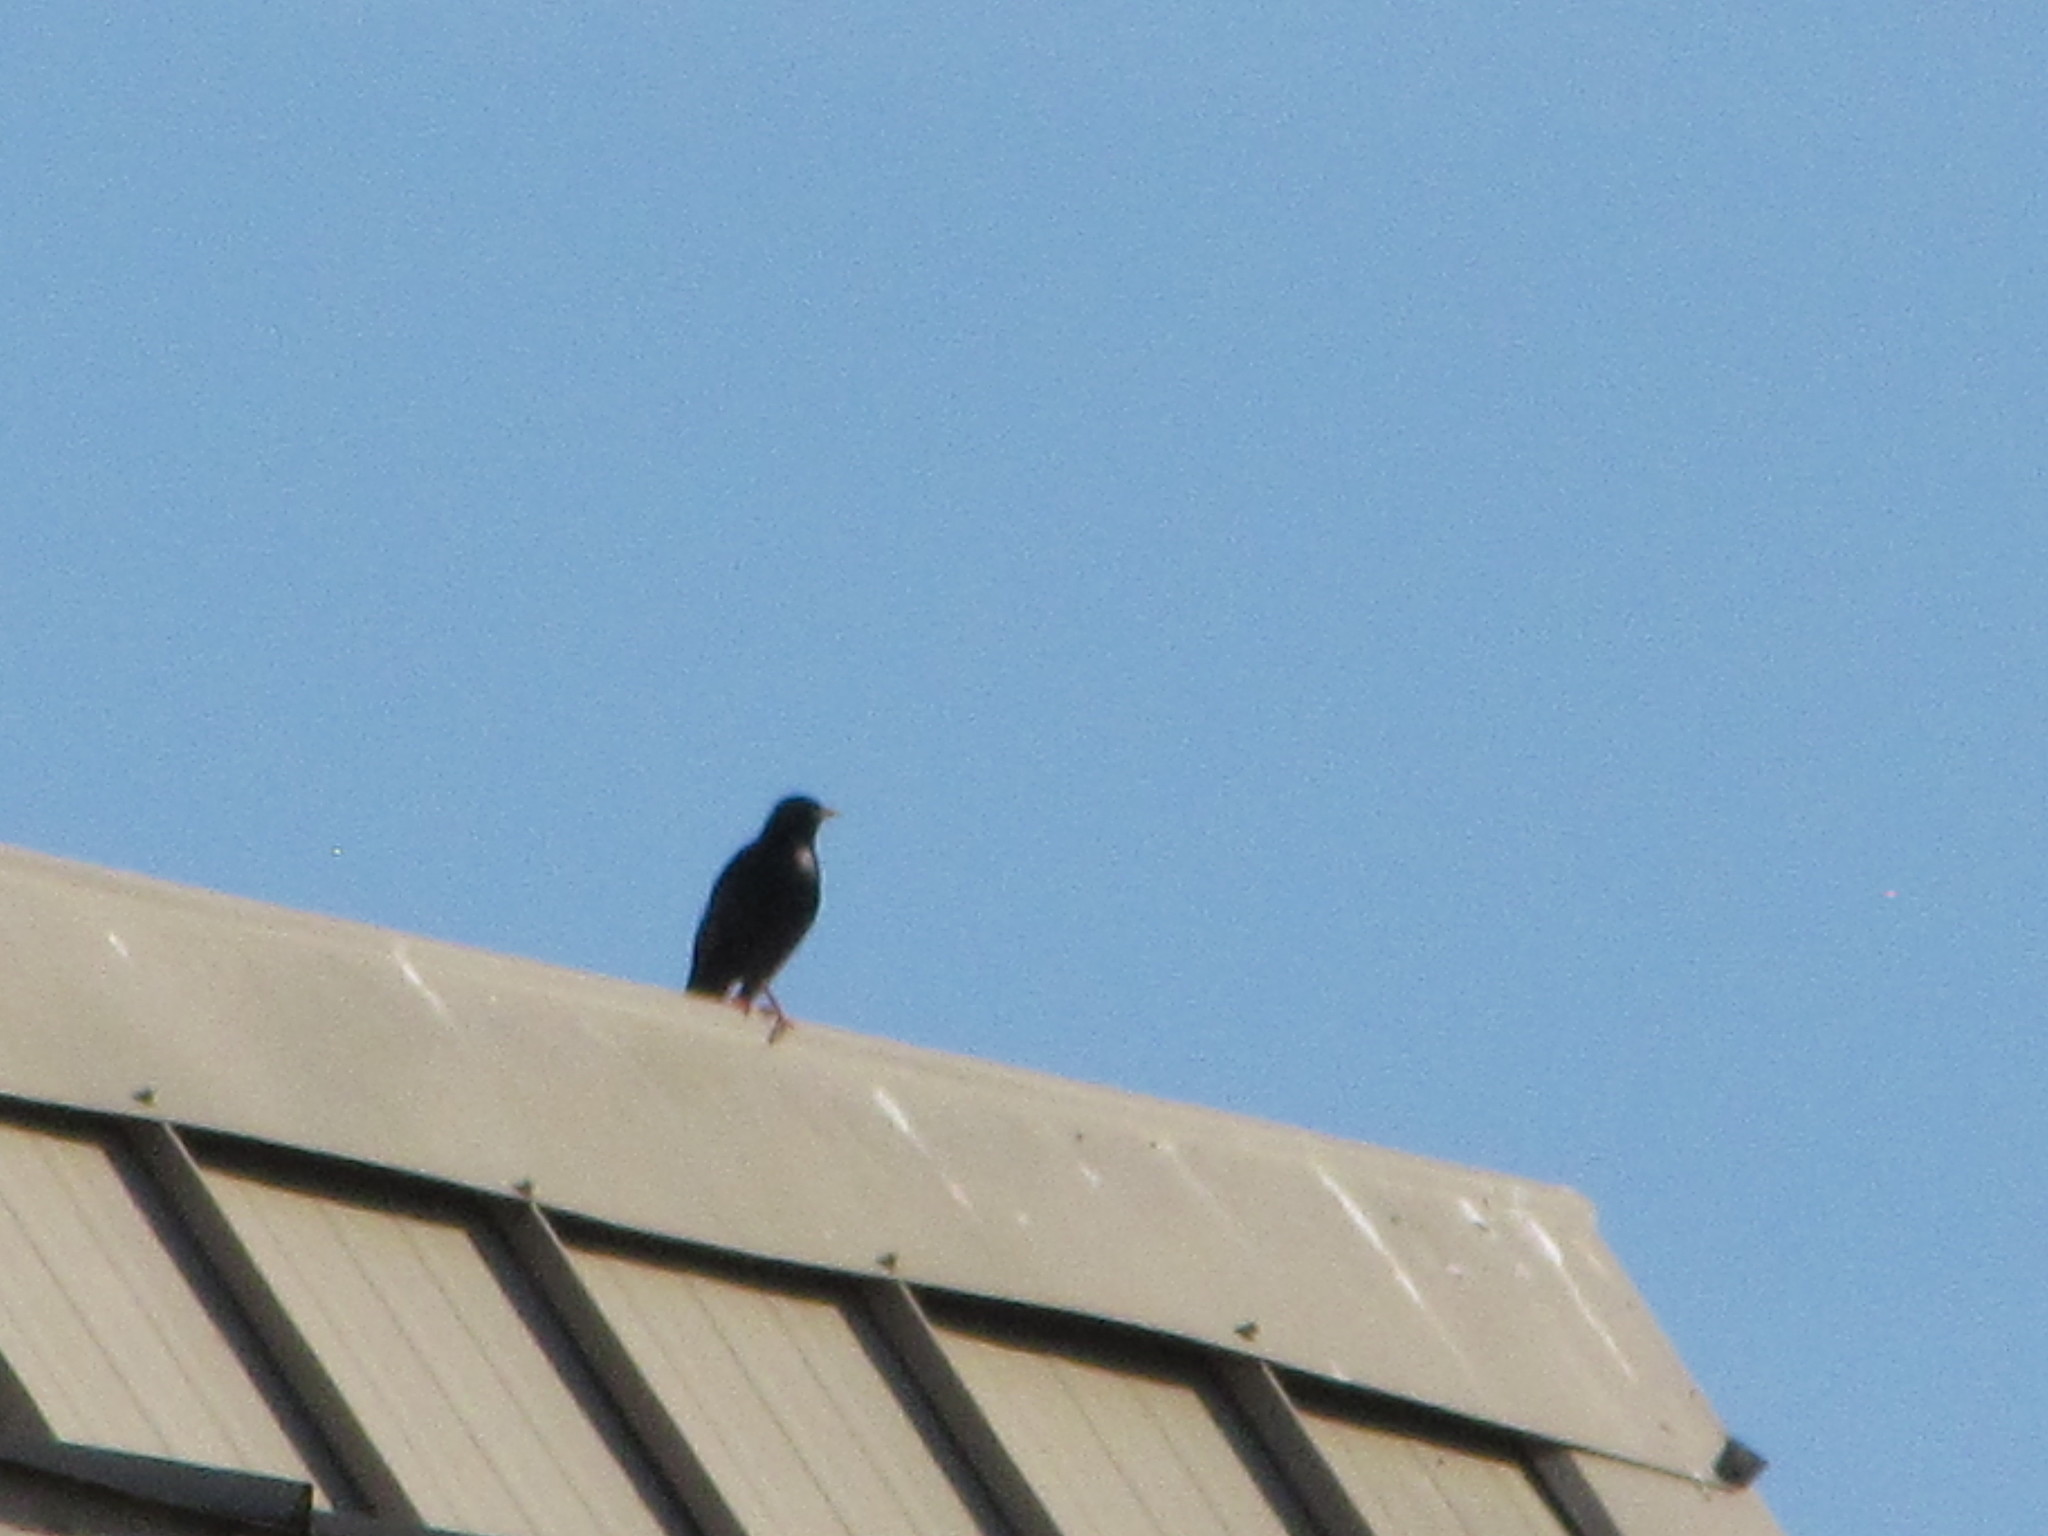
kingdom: Animalia
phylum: Chordata
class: Aves
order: Passeriformes
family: Sturnidae
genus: Sturnus
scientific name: Sturnus vulgaris
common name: Common starling
